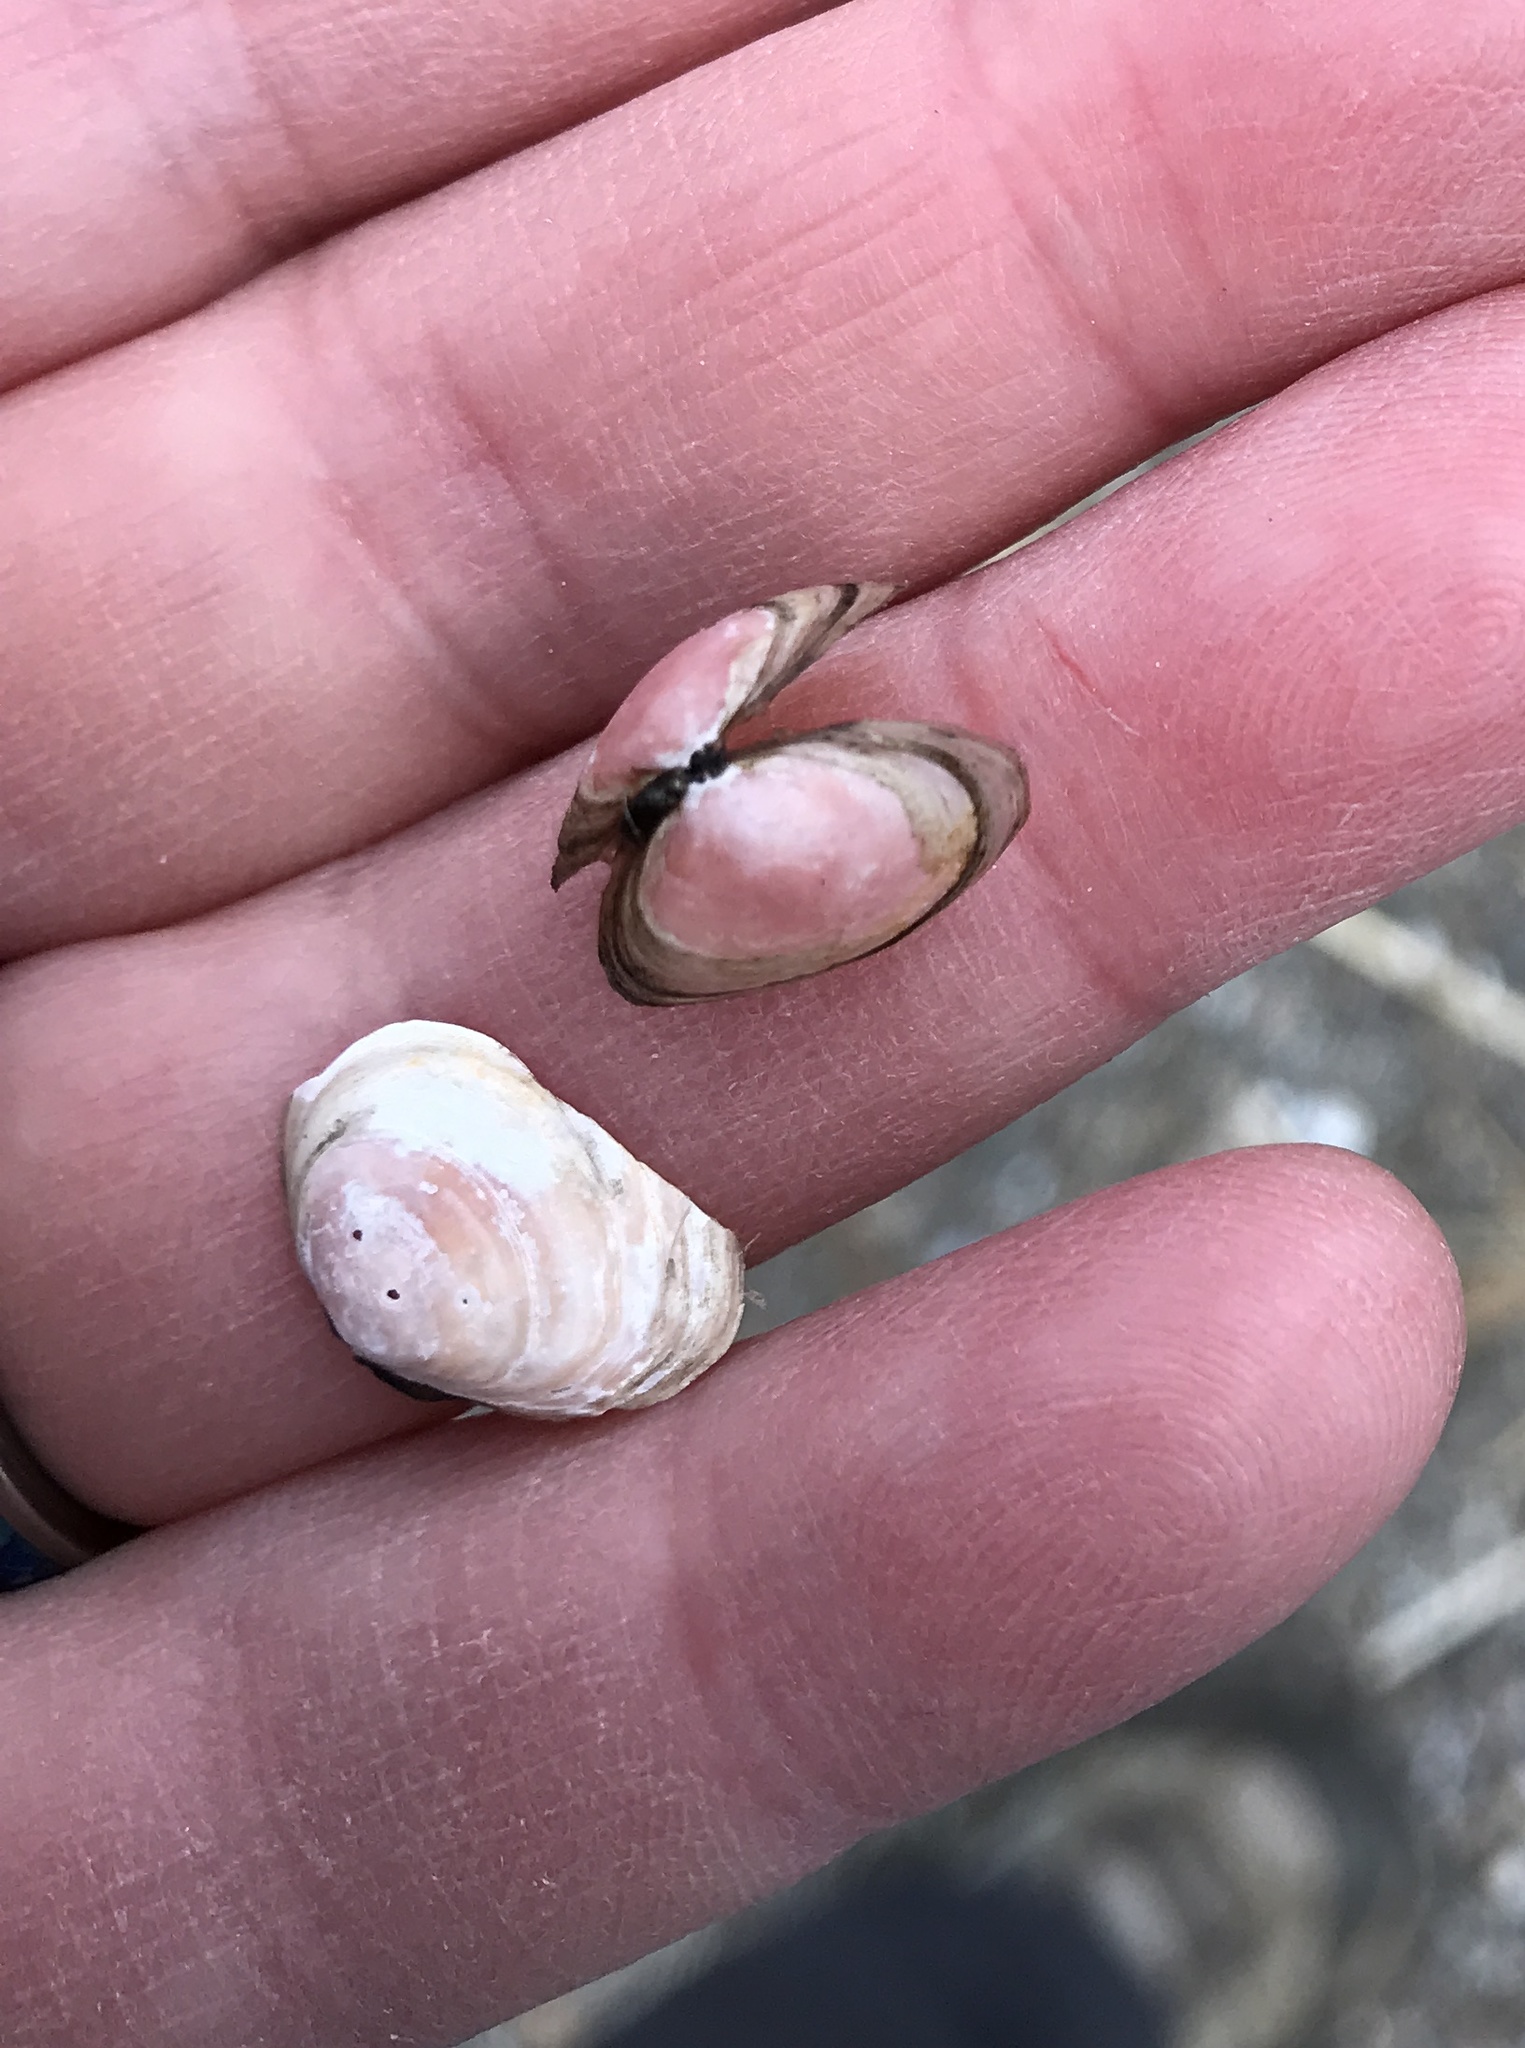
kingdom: Animalia
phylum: Mollusca
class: Bivalvia
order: Cardiida
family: Tellinidae
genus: Macoma
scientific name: Macoma balthica
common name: Baltic tellin
